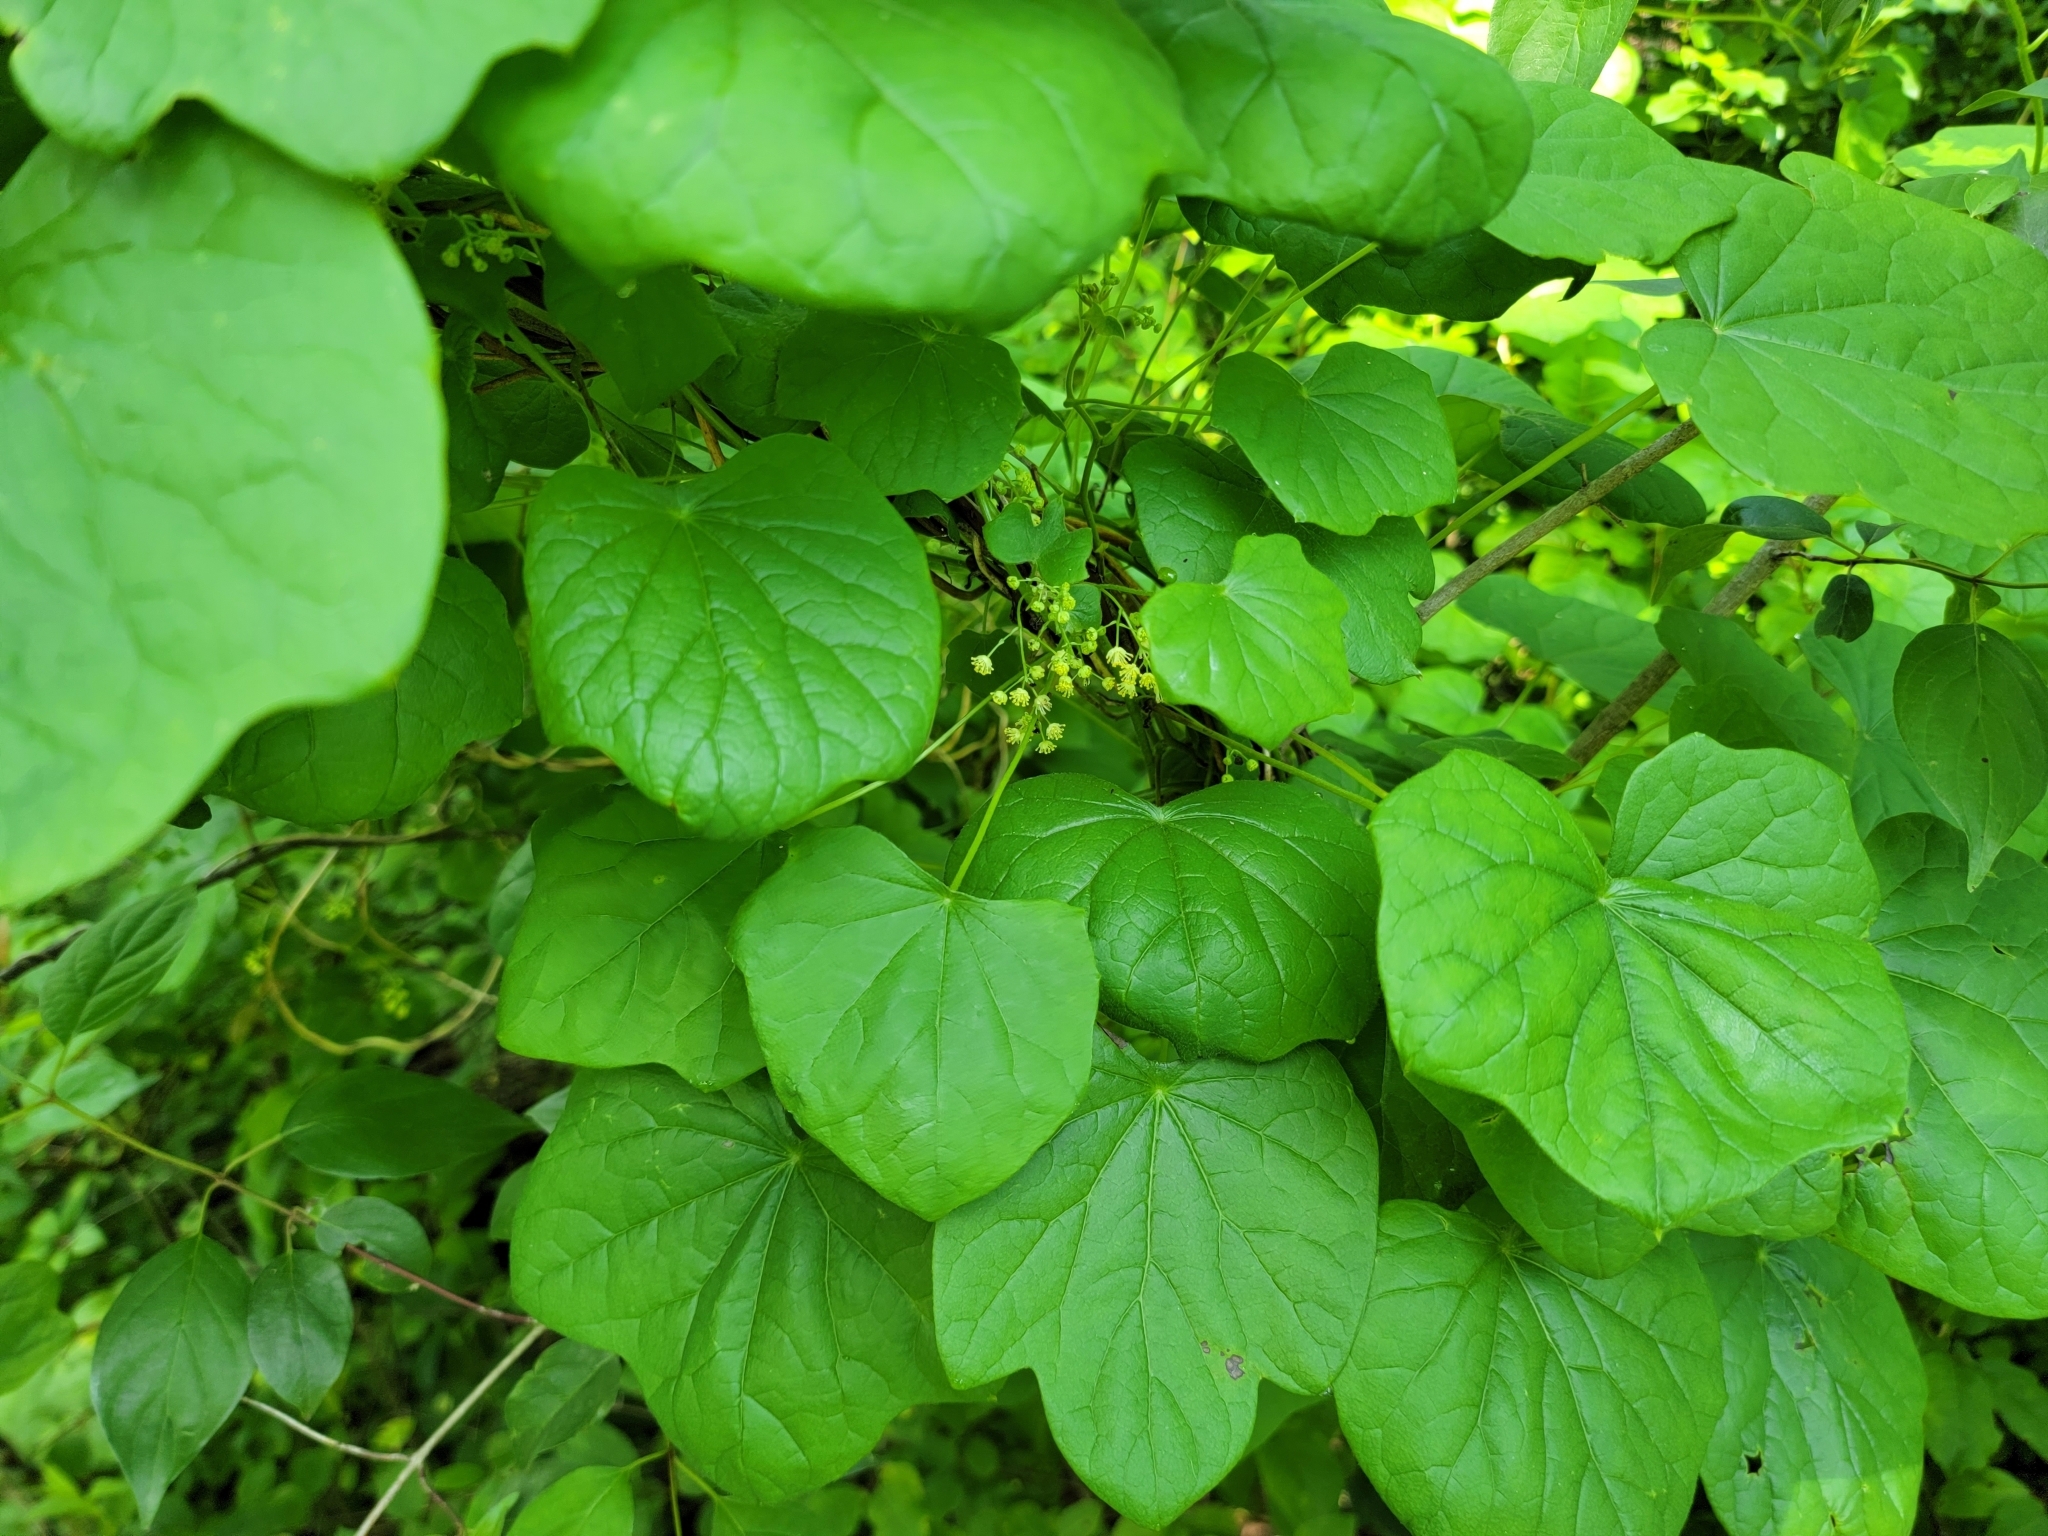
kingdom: Plantae
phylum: Tracheophyta
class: Magnoliopsida
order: Ranunculales
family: Menispermaceae
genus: Menispermum
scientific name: Menispermum canadense
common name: Moonseed
